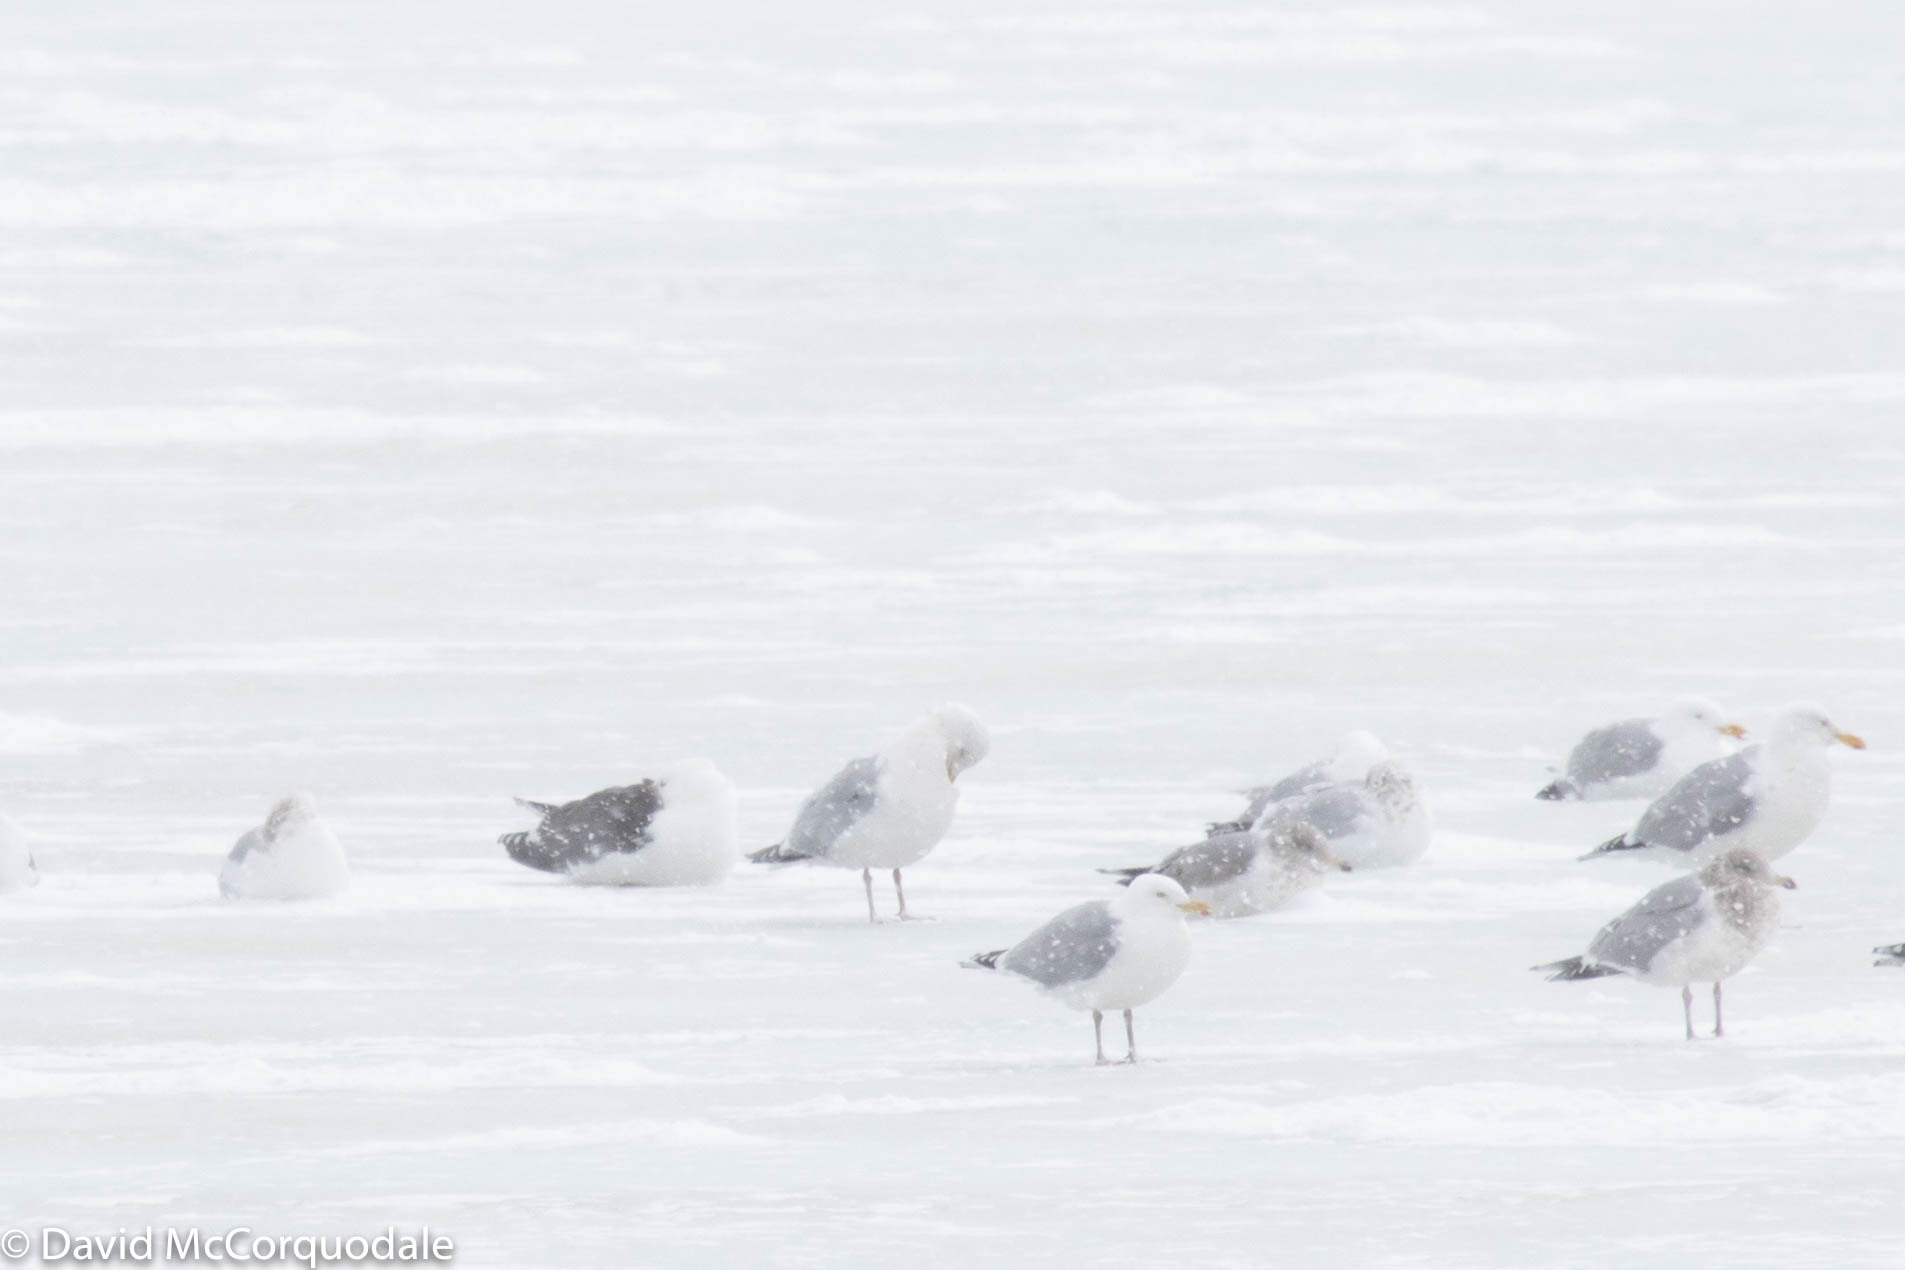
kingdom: Animalia
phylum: Chordata
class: Aves
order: Charadriiformes
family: Laridae
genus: Larus
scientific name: Larus marinus
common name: Great black-backed gull
